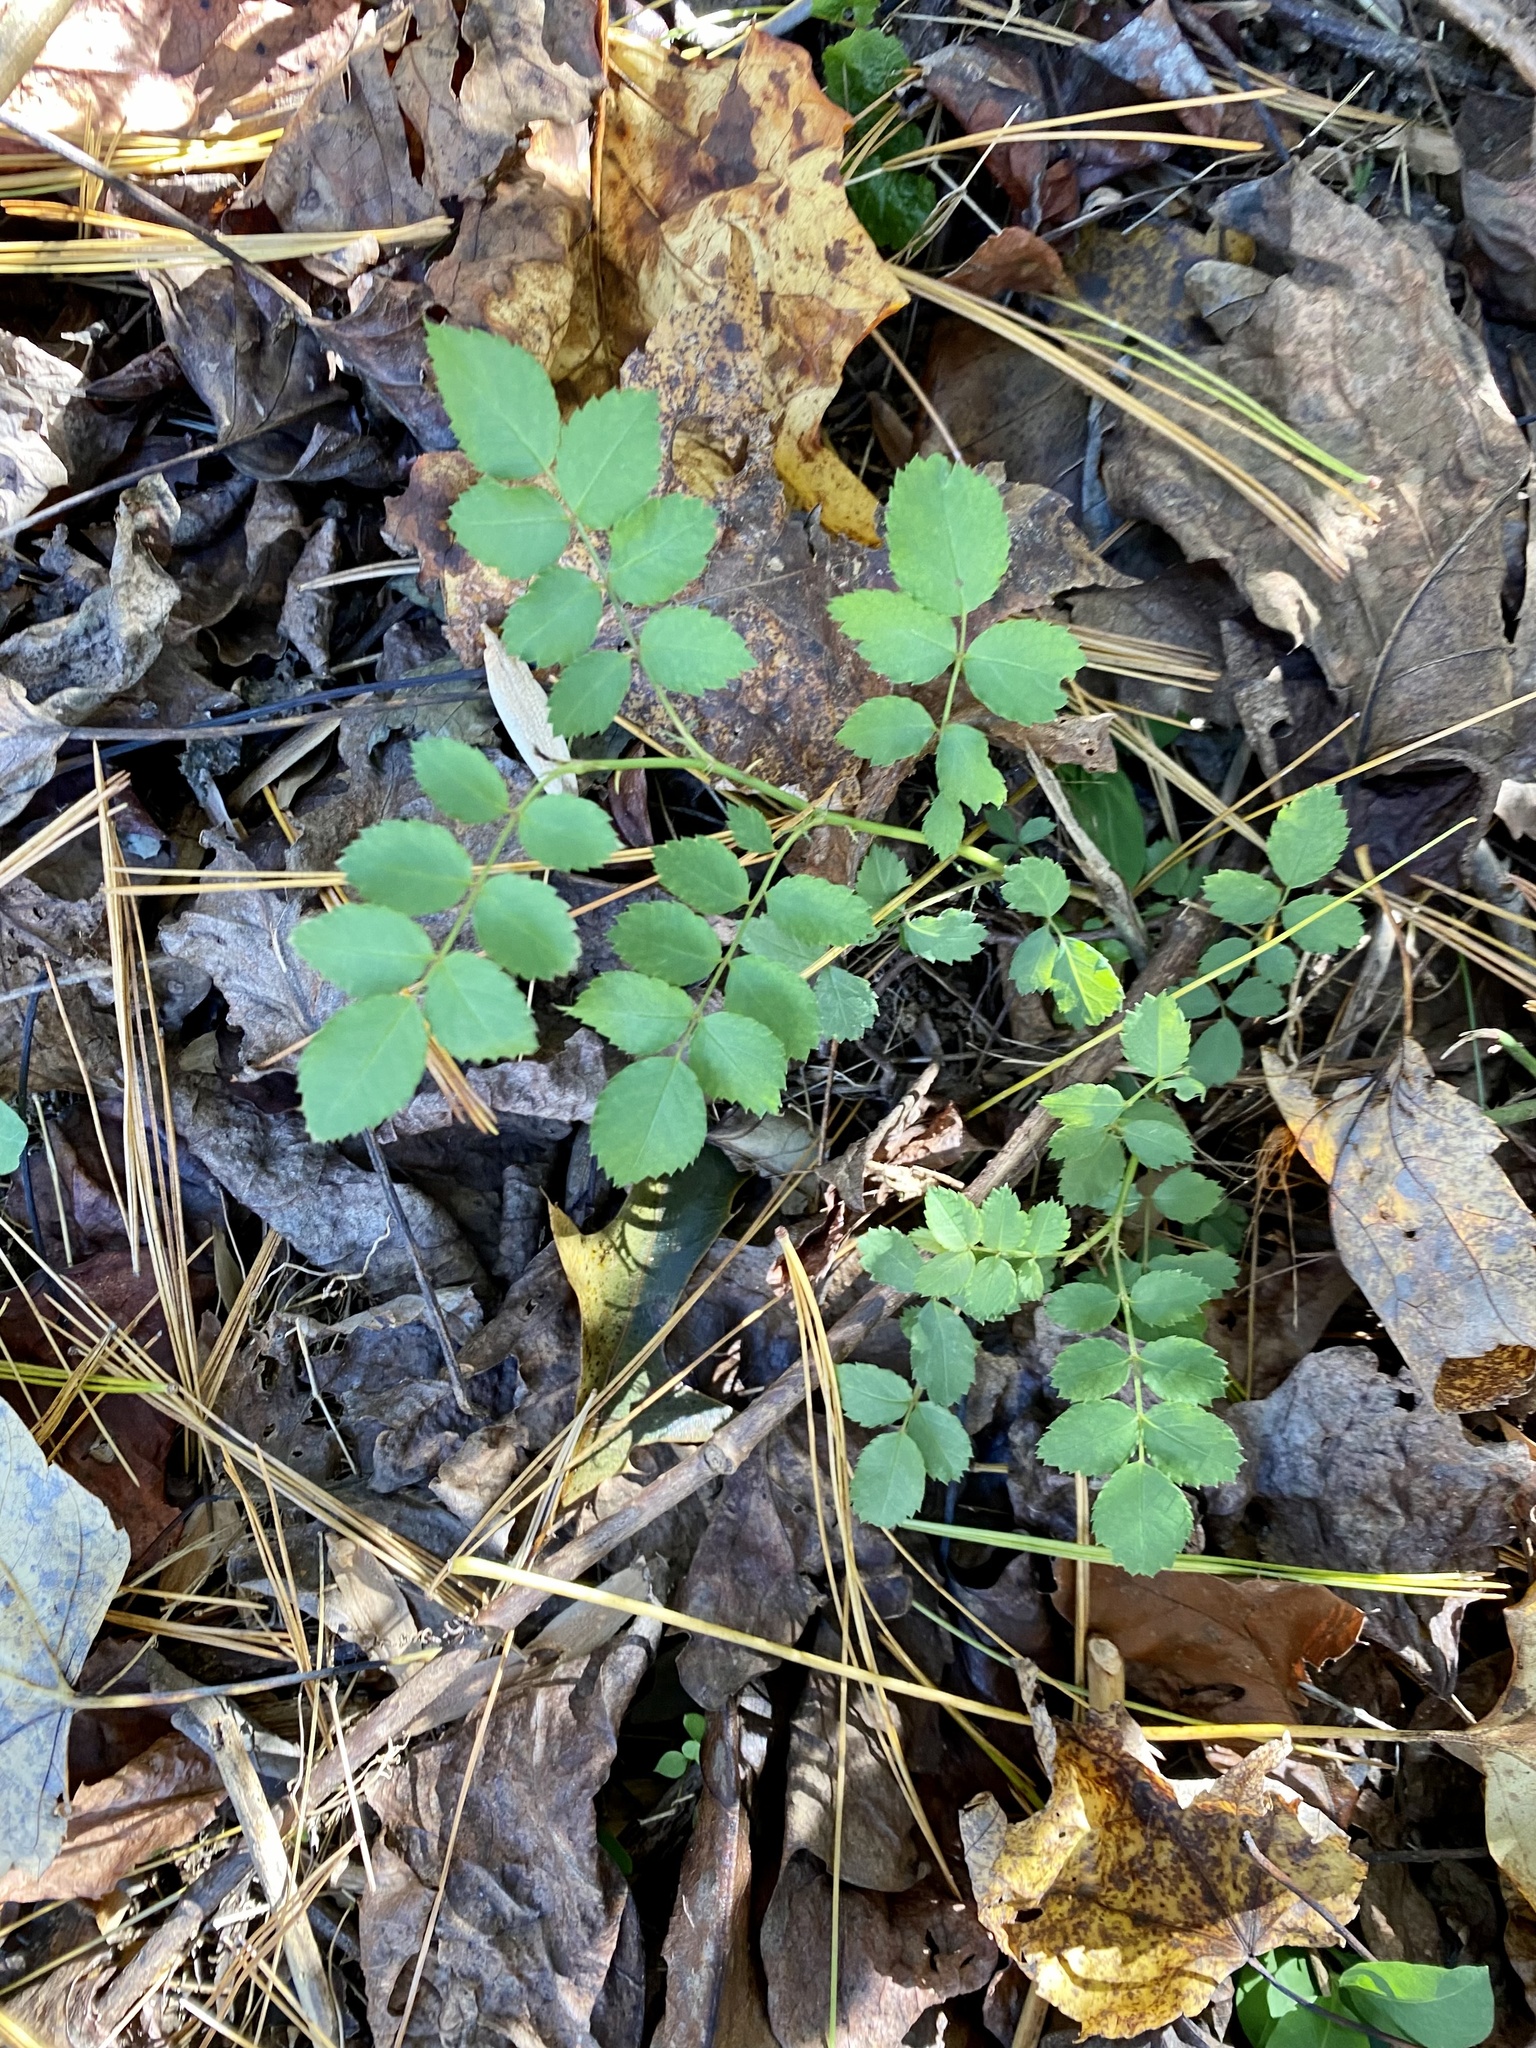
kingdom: Plantae
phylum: Tracheophyta
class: Magnoliopsida
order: Rosales
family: Rosaceae
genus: Rosa
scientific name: Rosa multiflora
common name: Multiflora rose
